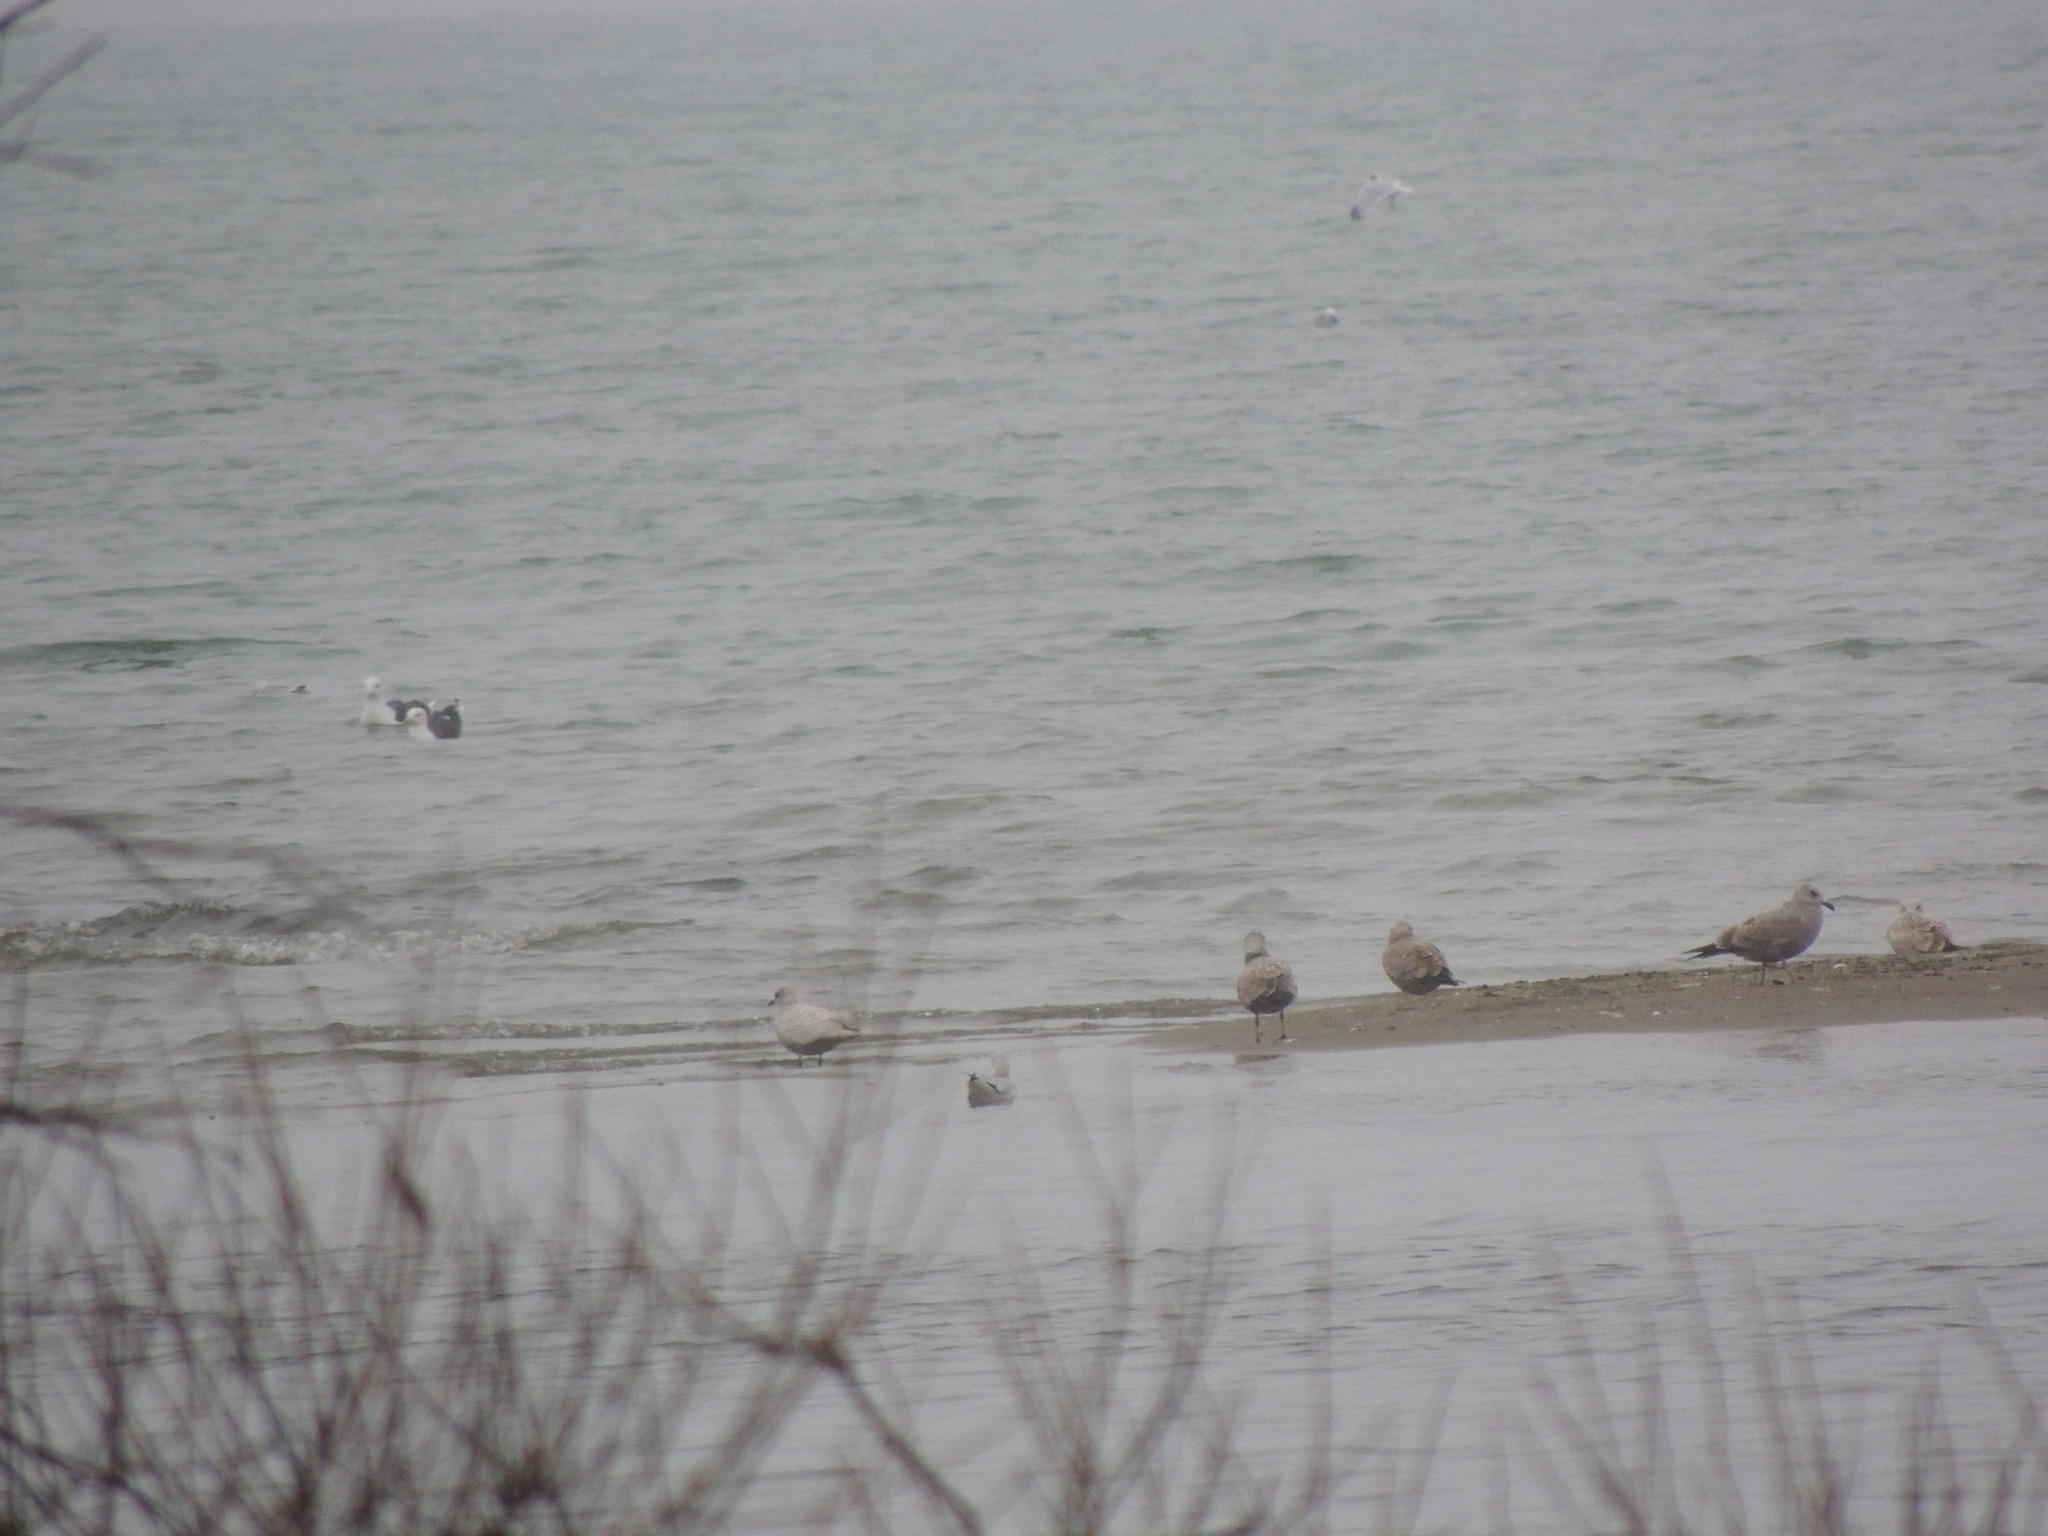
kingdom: Animalia
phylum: Chordata
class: Aves
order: Charadriiformes
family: Laridae
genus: Larus
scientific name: Larus glaucoides
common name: Iceland gull
